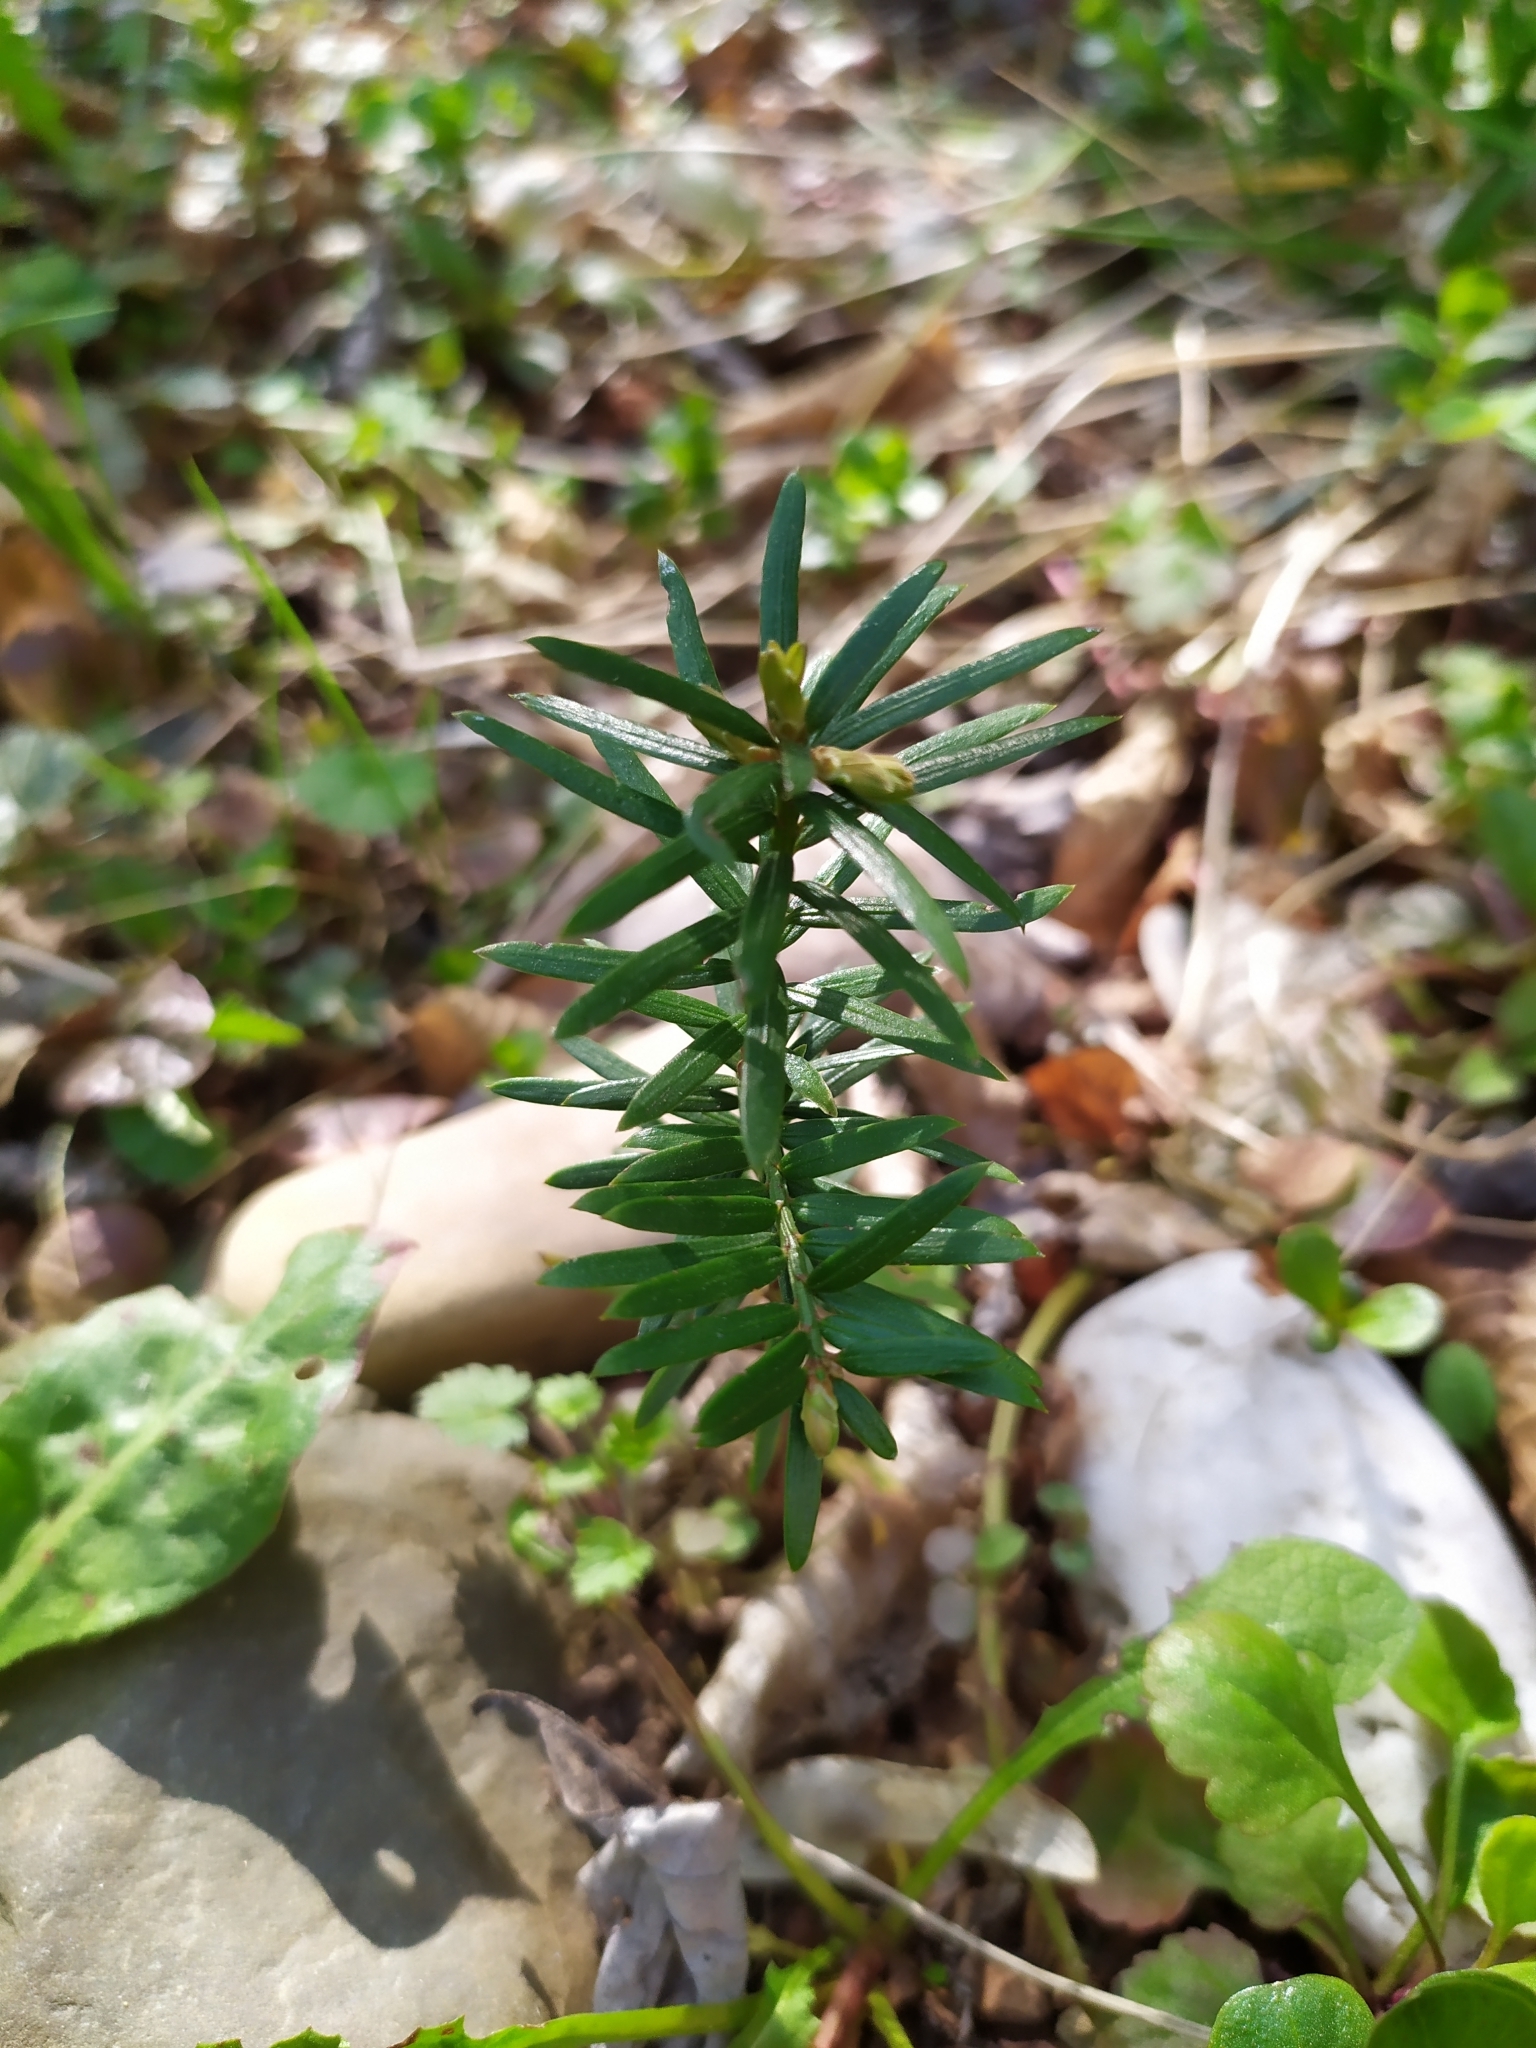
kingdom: Plantae
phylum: Tracheophyta
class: Pinopsida
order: Pinales
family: Taxaceae
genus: Taxus
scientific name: Taxus baccata
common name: Yew
